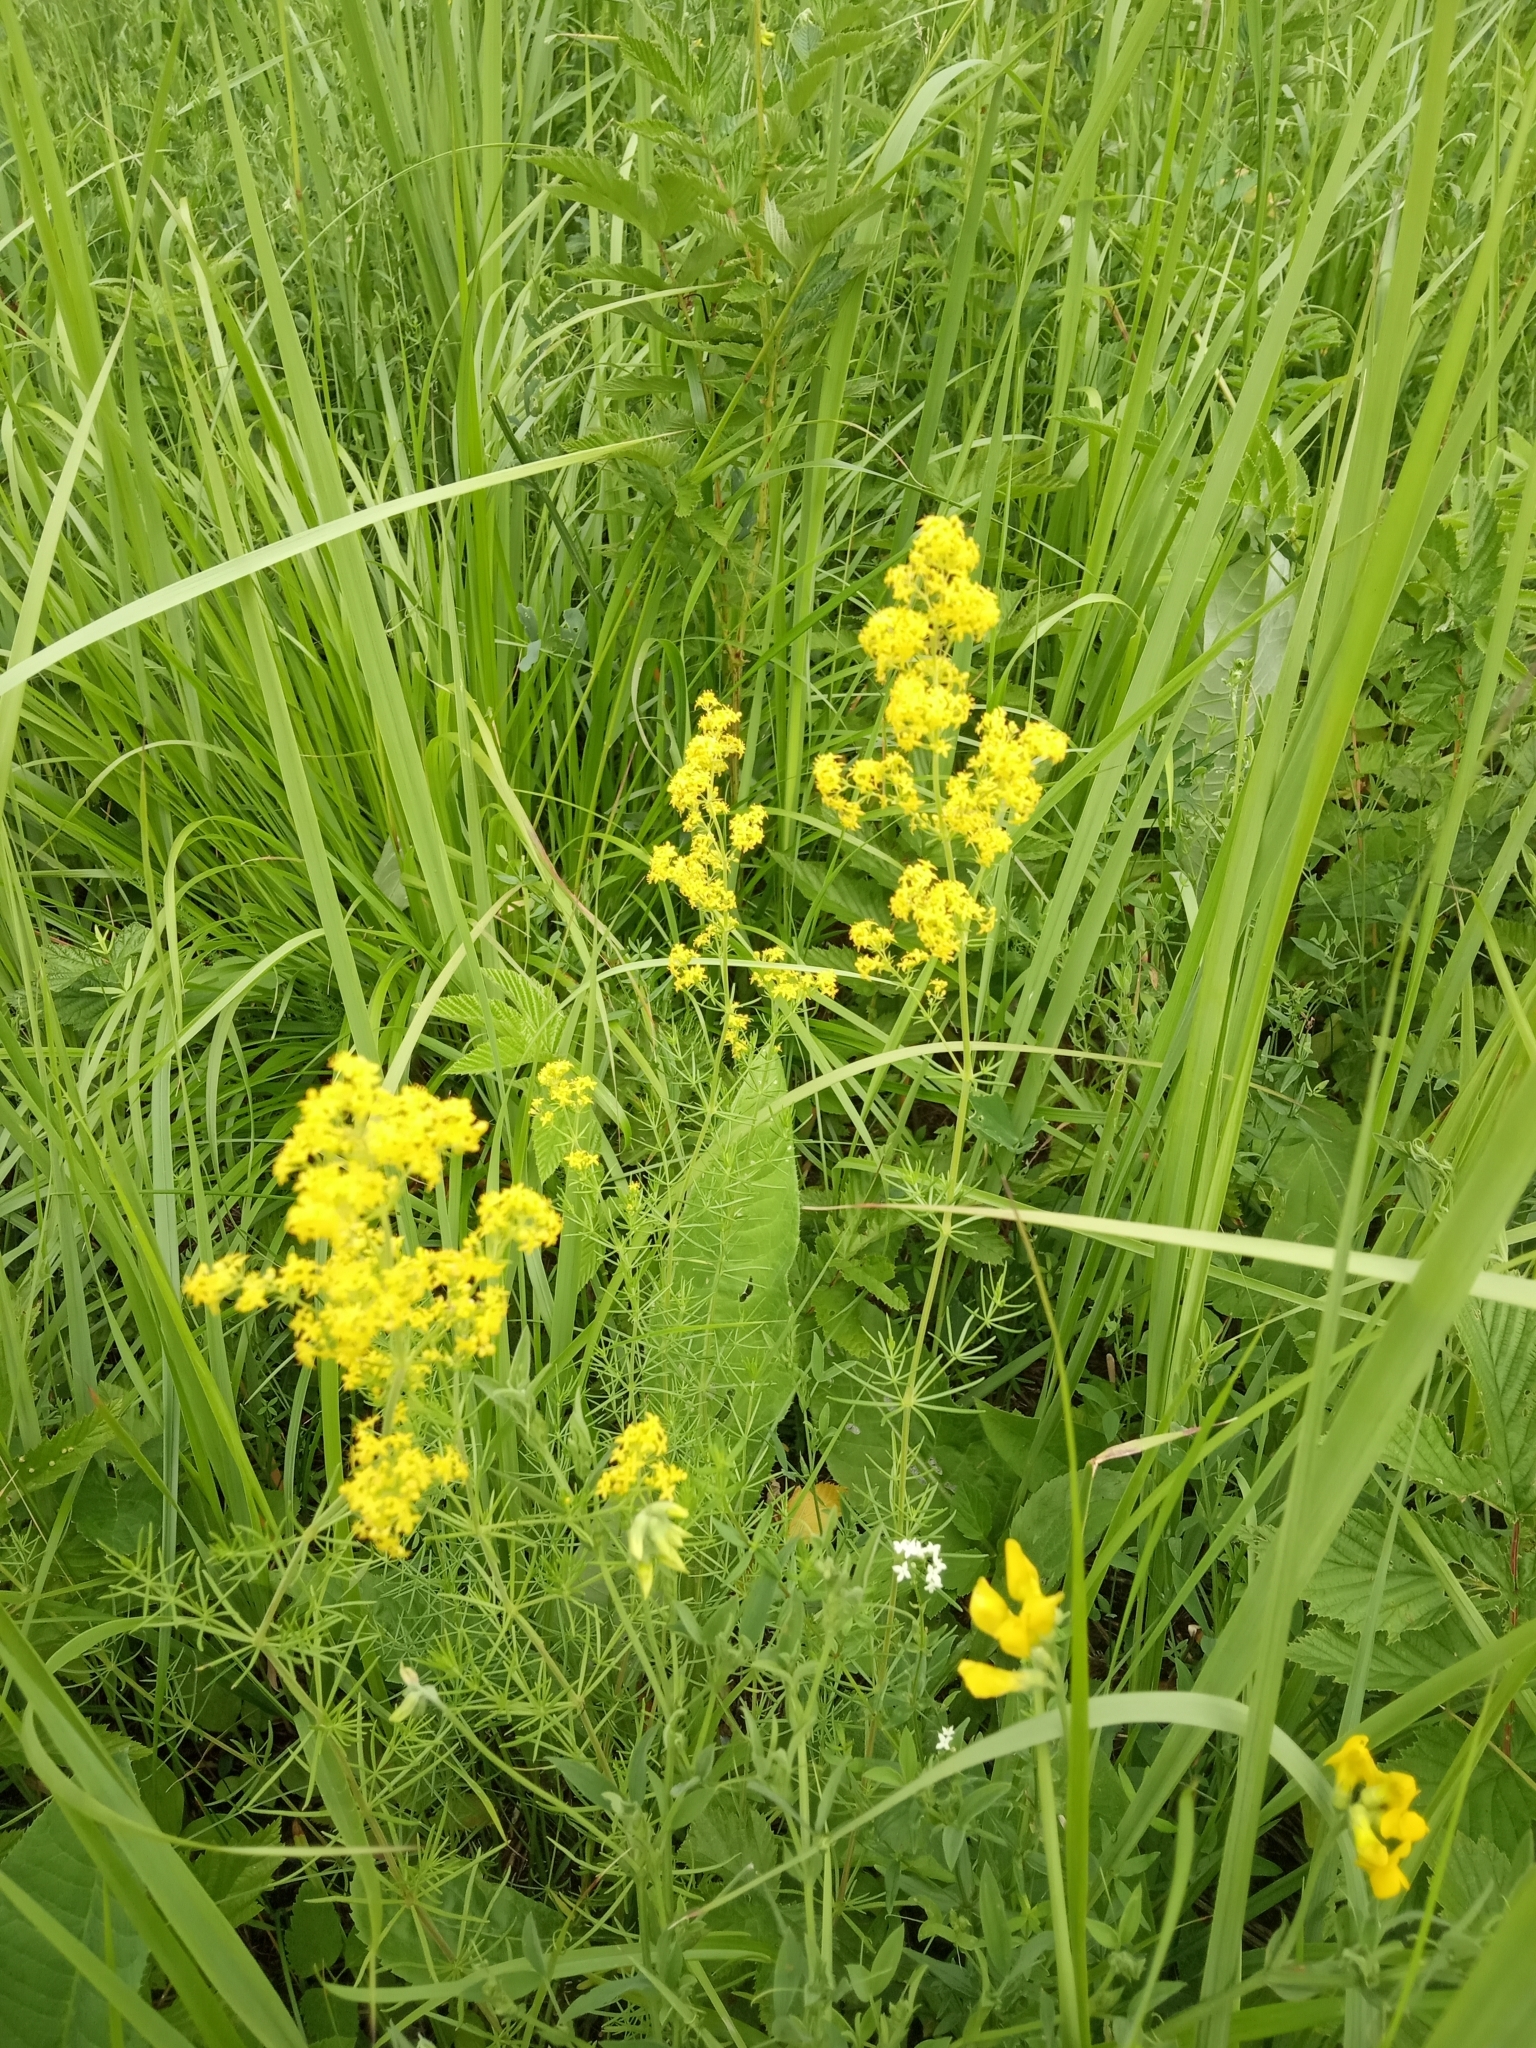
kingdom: Plantae
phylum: Tracheophyta
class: Magnoliopsida
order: Gentianales
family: Rubiaceae
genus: Galium
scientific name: Galium verum
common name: Lady's bedstraw
